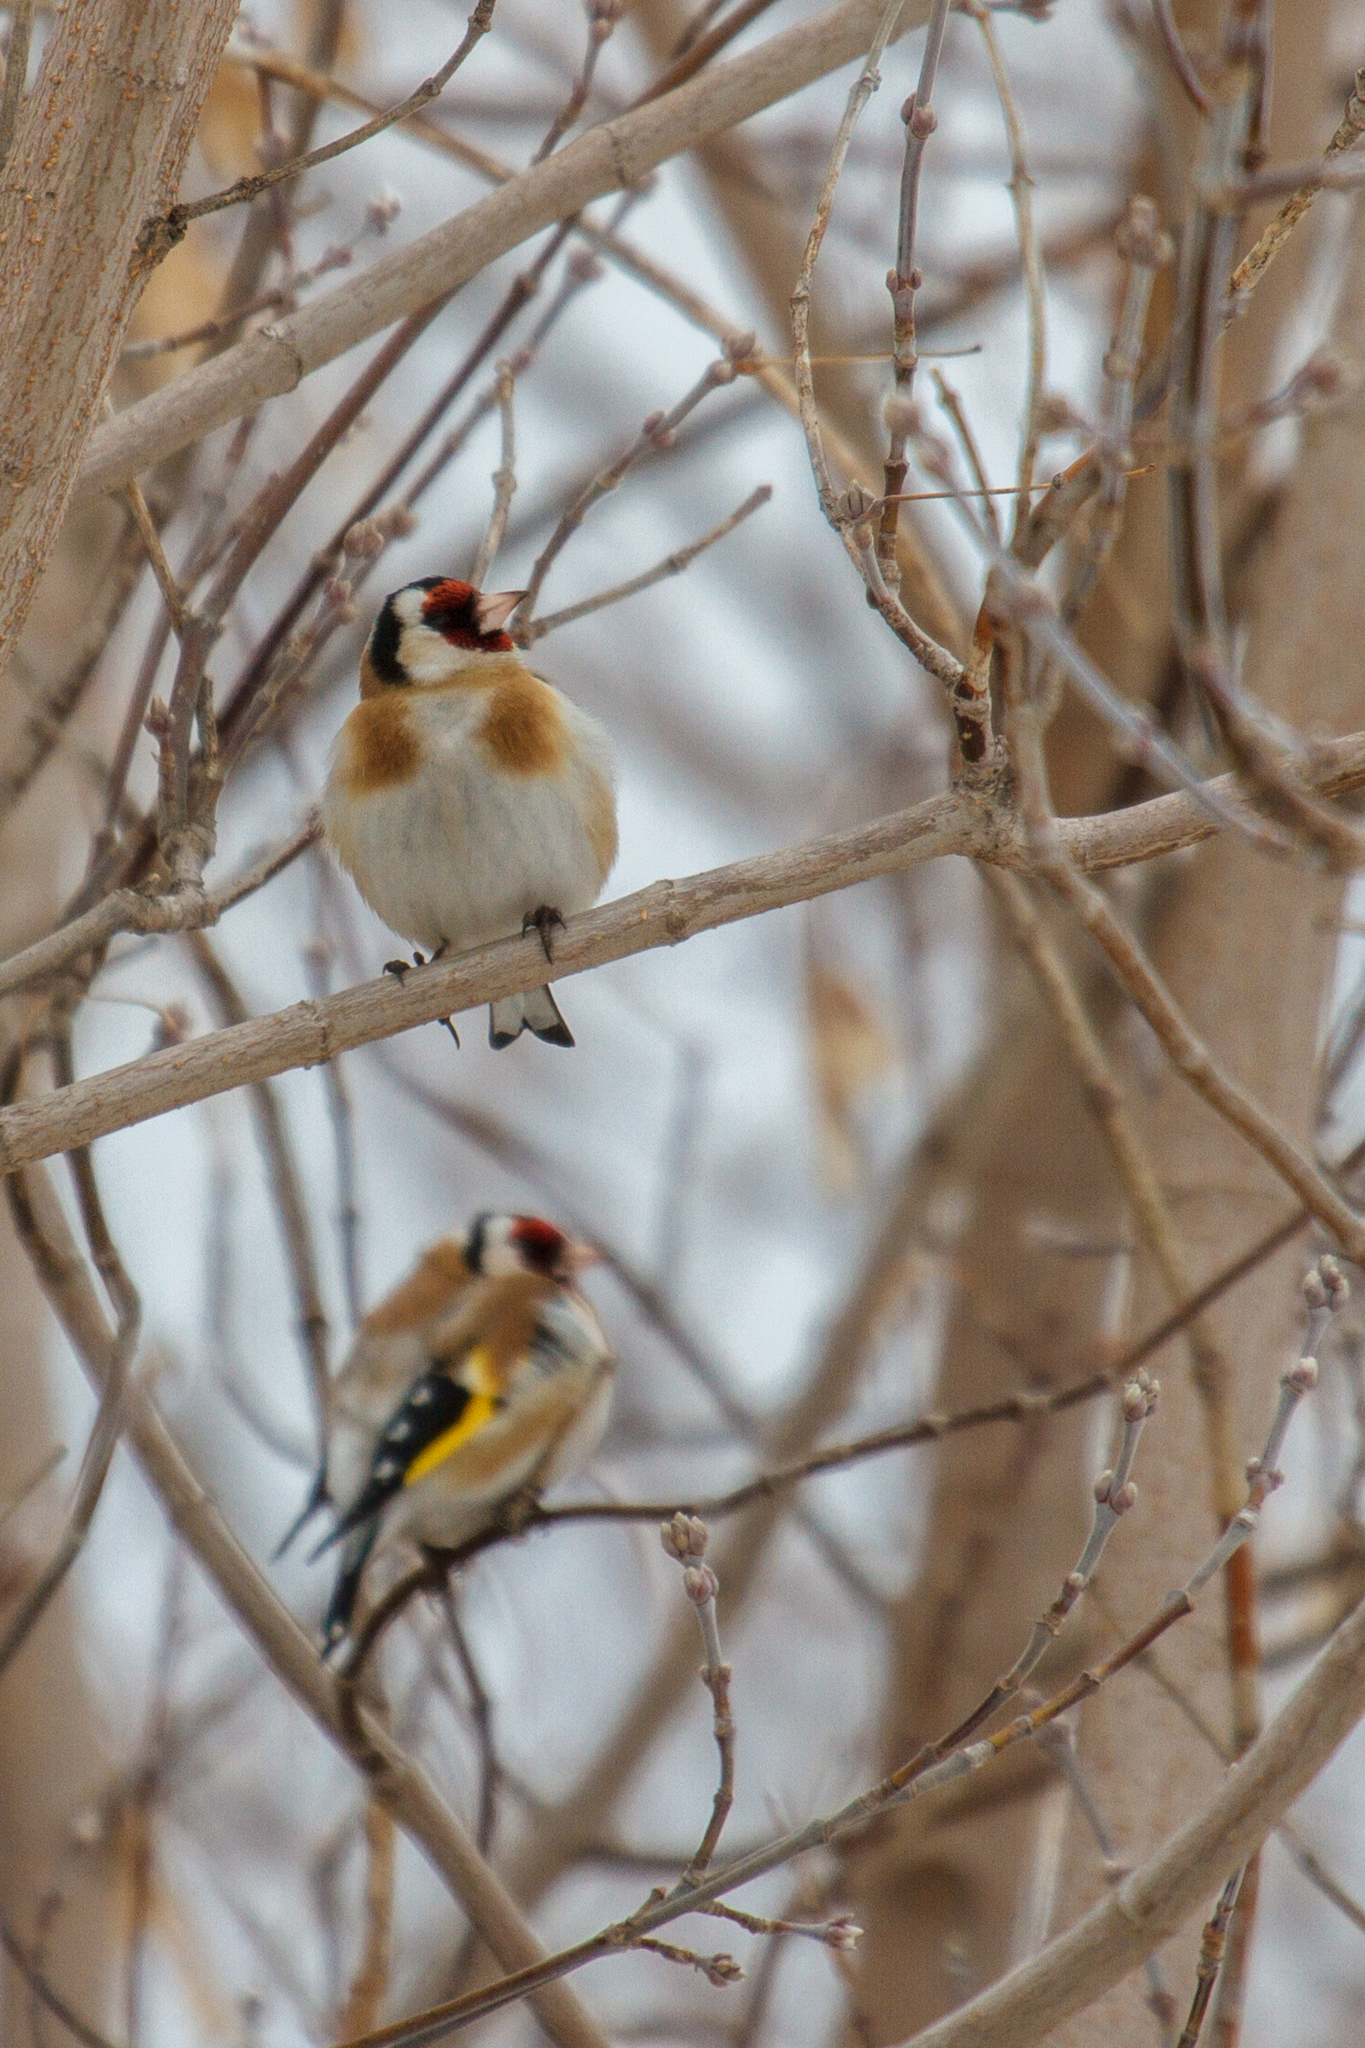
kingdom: Animalia
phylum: Chordata
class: Aves
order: Passeriformes
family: Fringillidae
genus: Carduelis
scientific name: Carduelis carduelis
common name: European goldfinch
